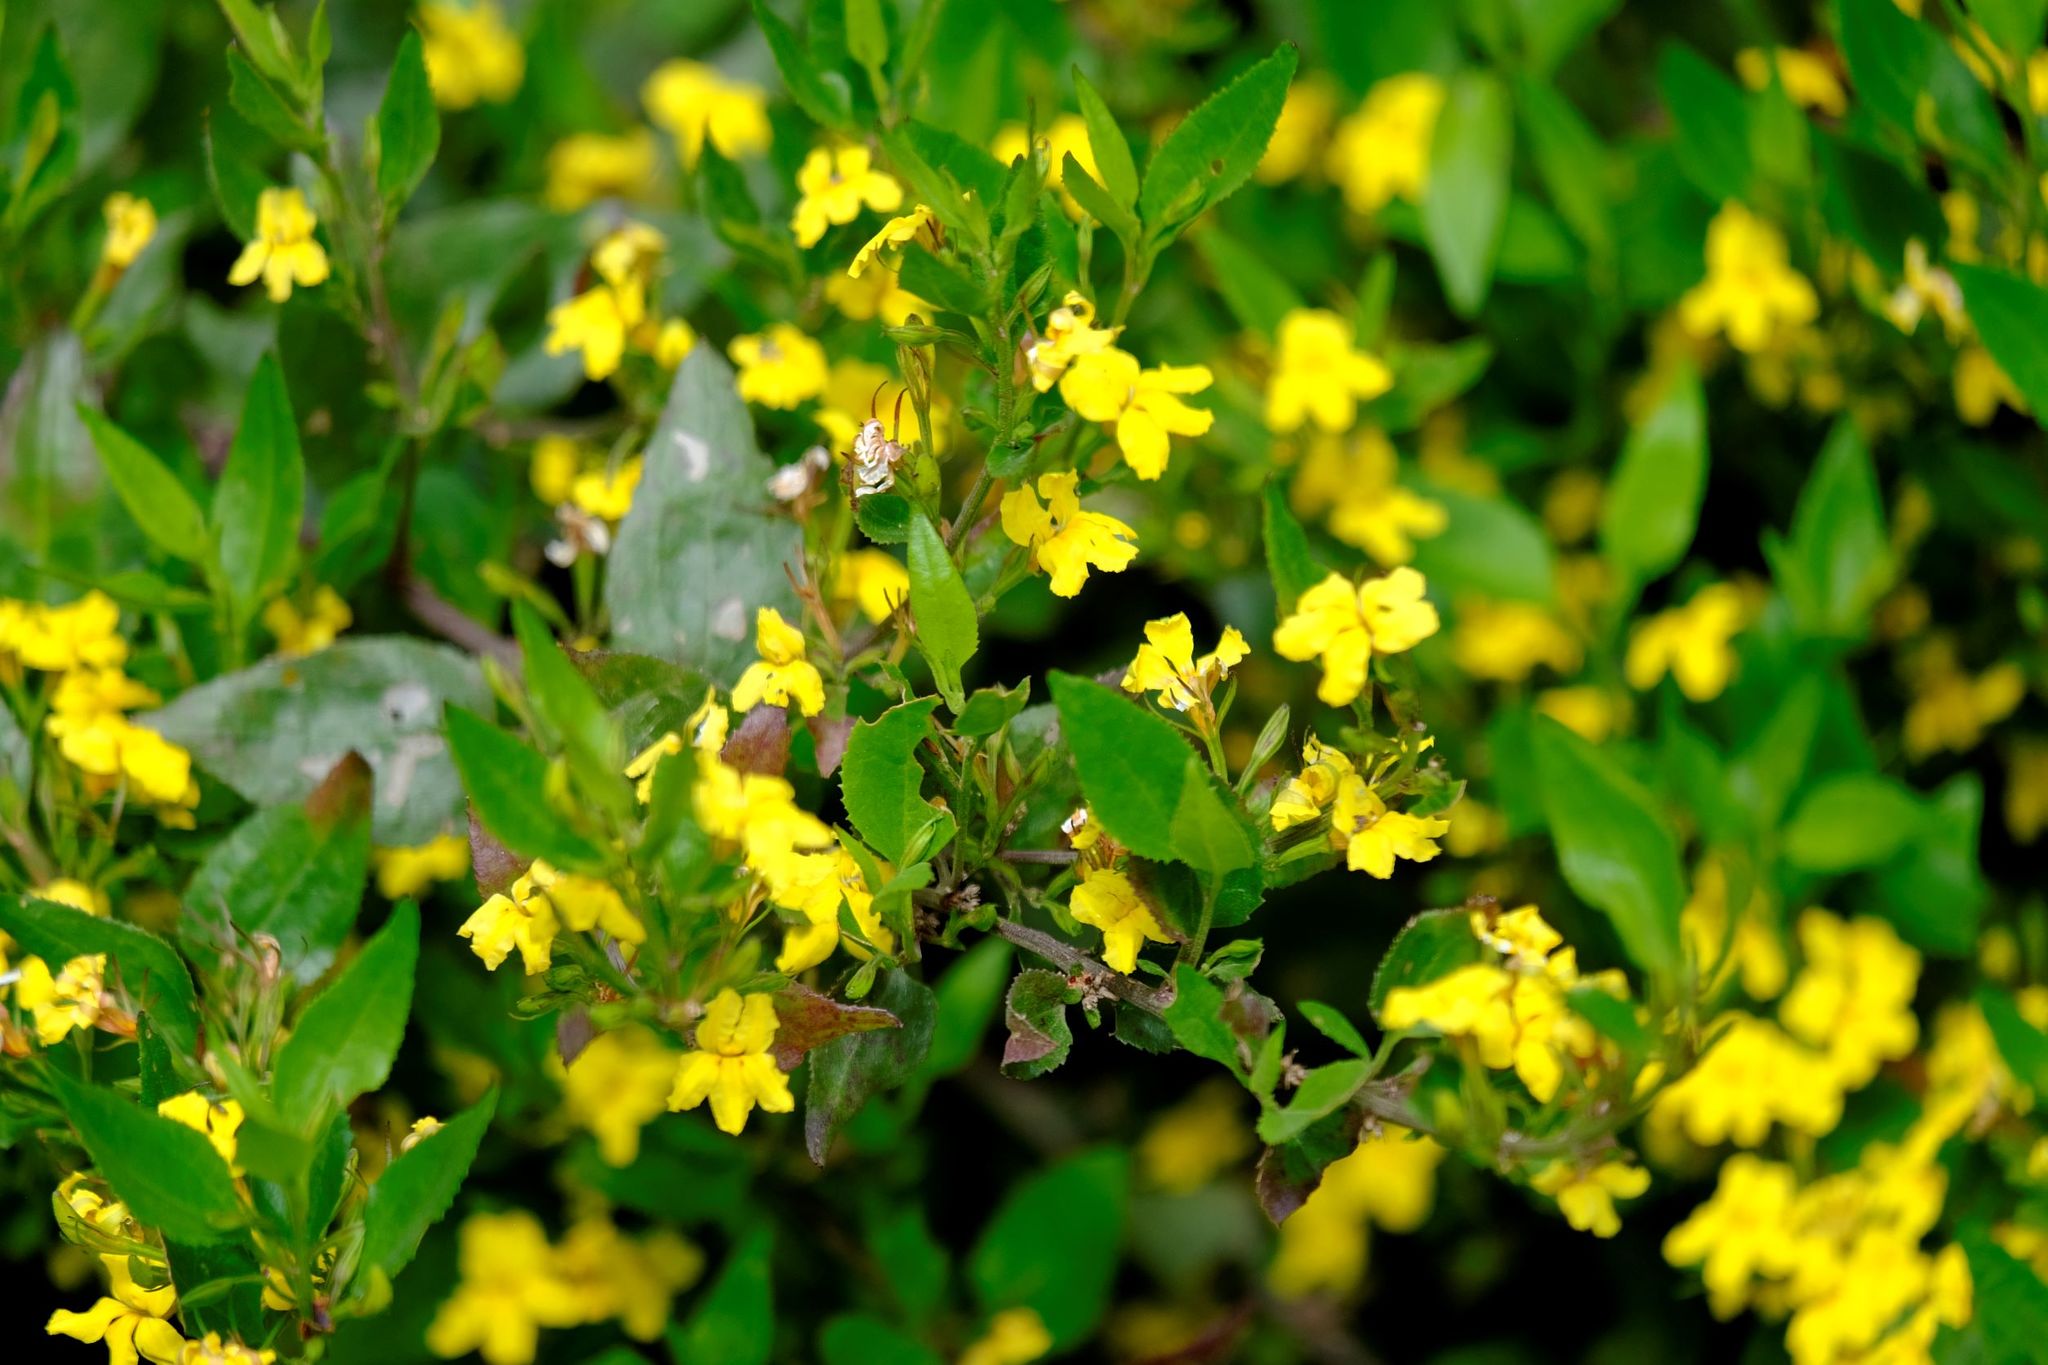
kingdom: Plantae
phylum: Tracheophyta
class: Magnoliopsida
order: Asterales
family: Goodeniaceae
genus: Goodenia
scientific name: Goodenia ovata
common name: Hop goodenia
